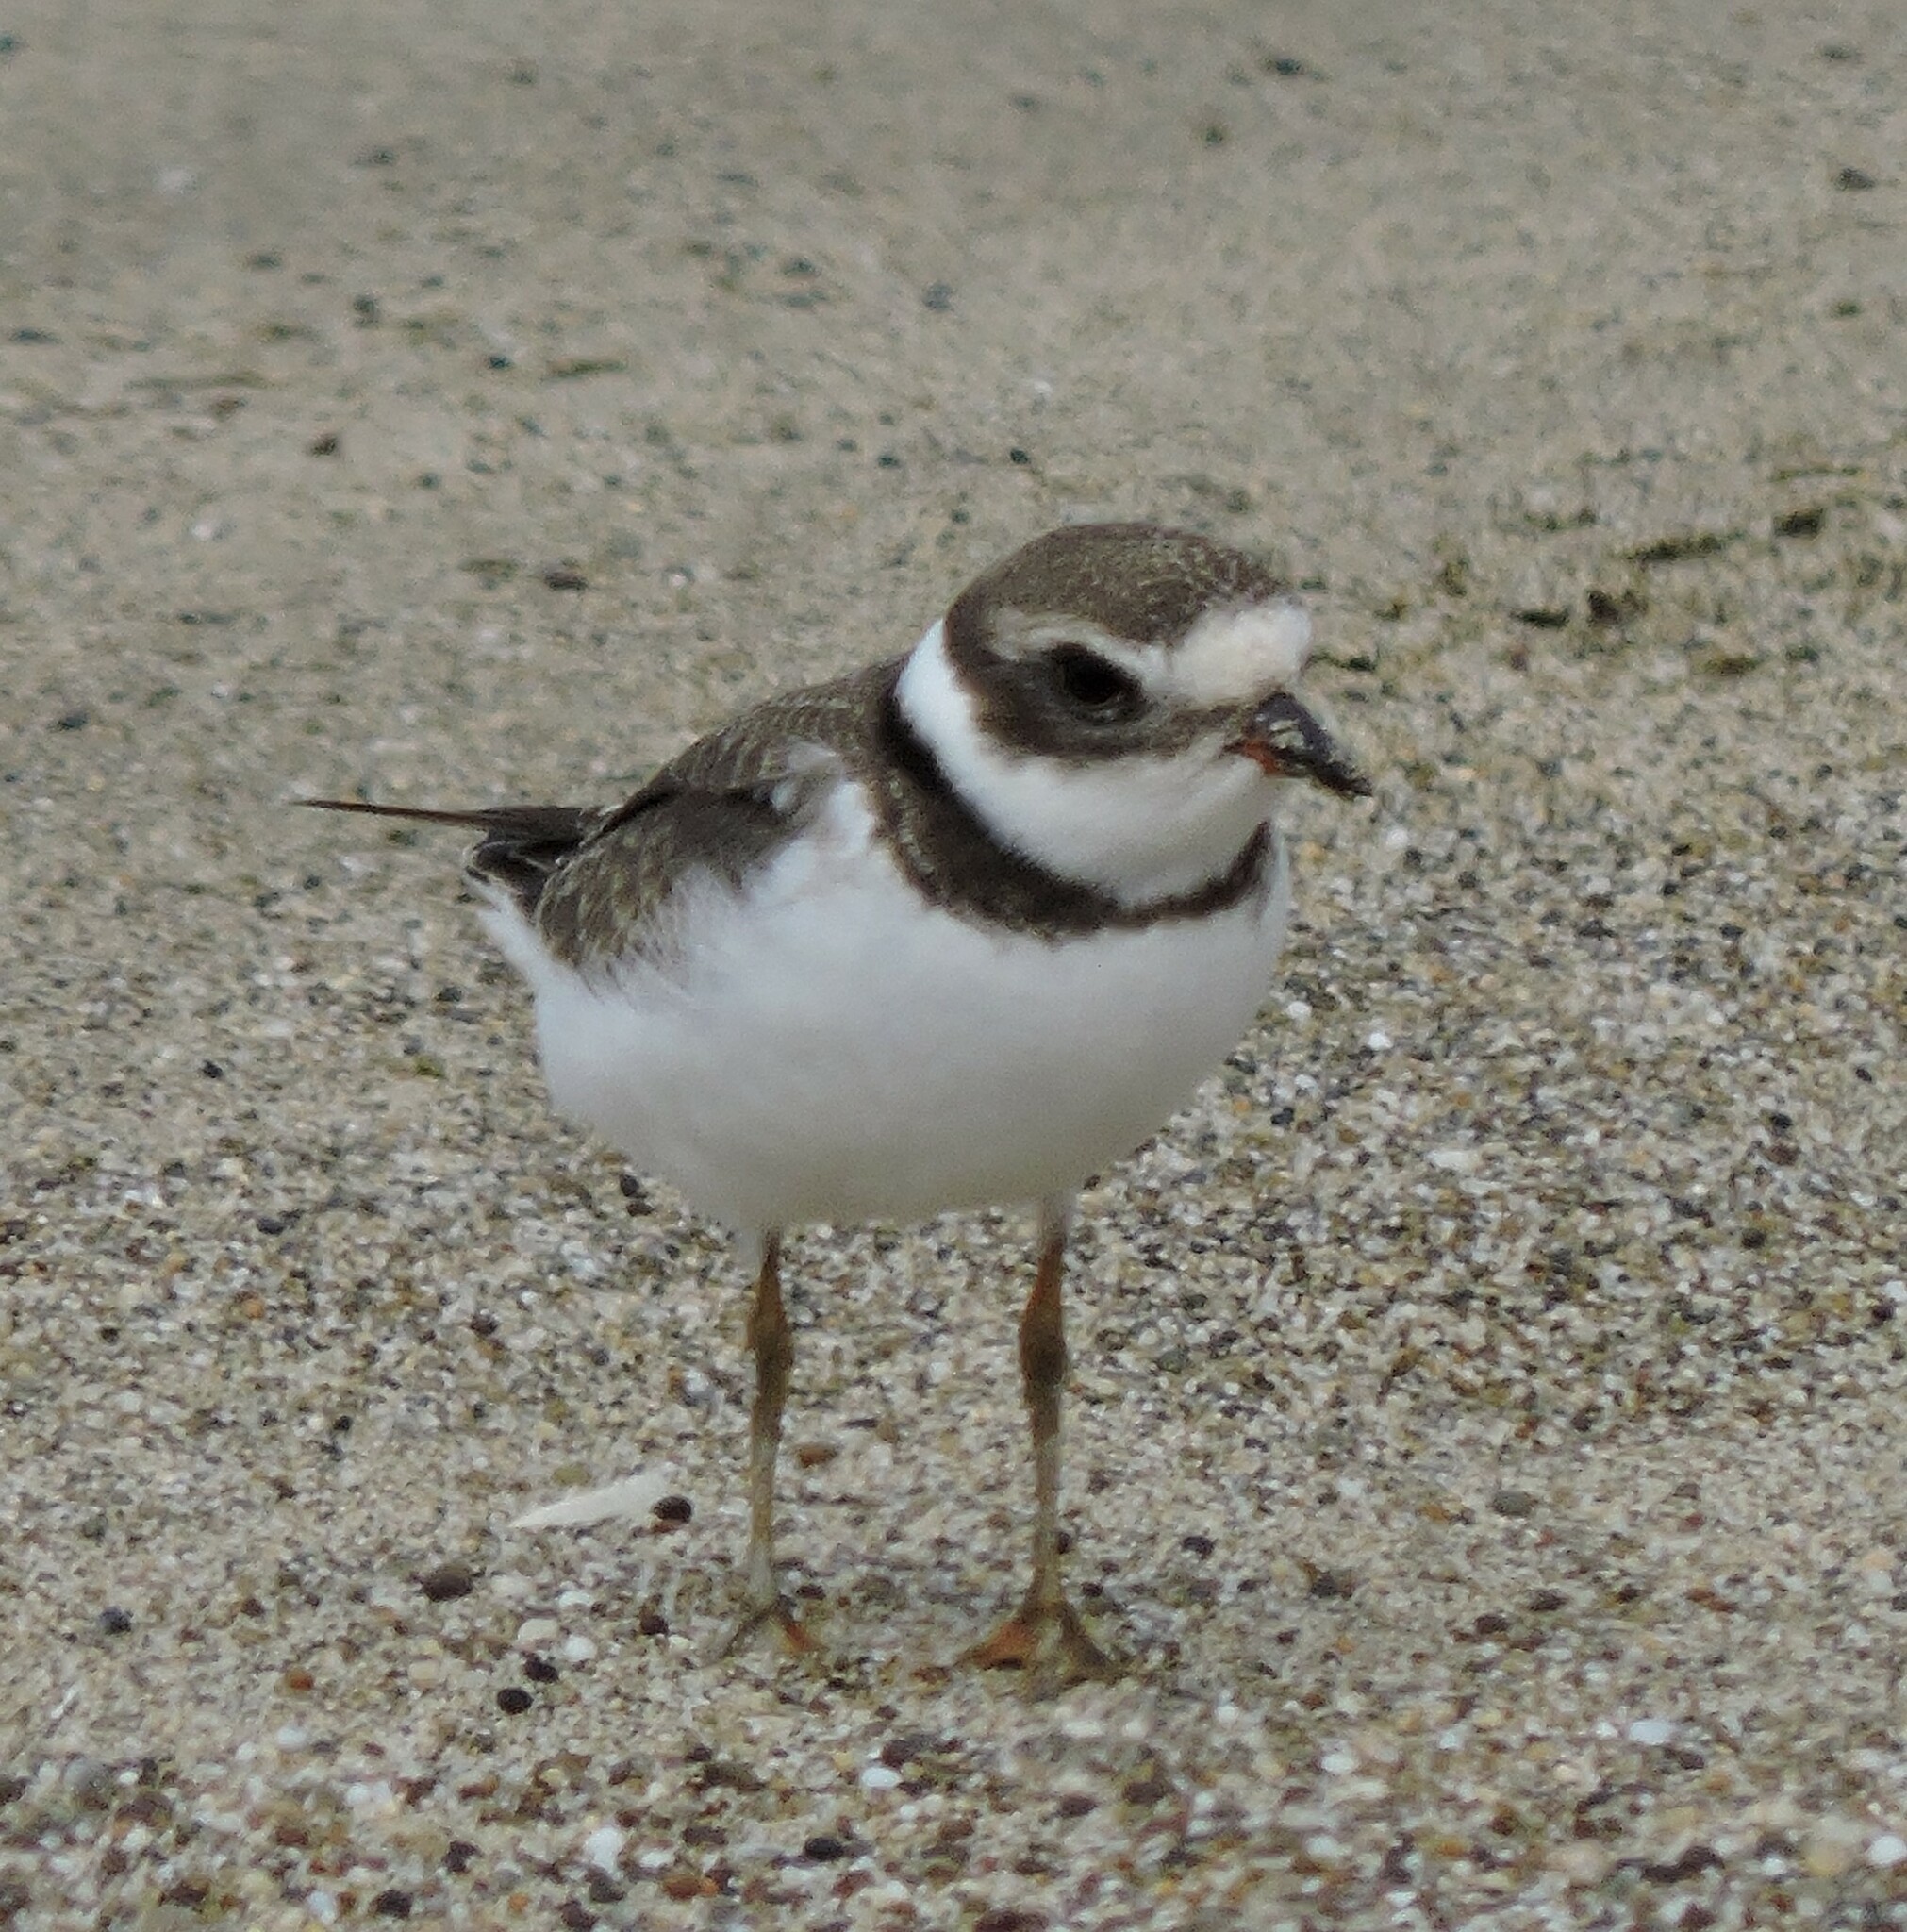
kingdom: Animalia
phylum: Chordata
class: Aves
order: Charadriiformes
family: Charadriidae
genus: Charadrius
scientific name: Charadrius semipalmatus
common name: Semipalmated plover
